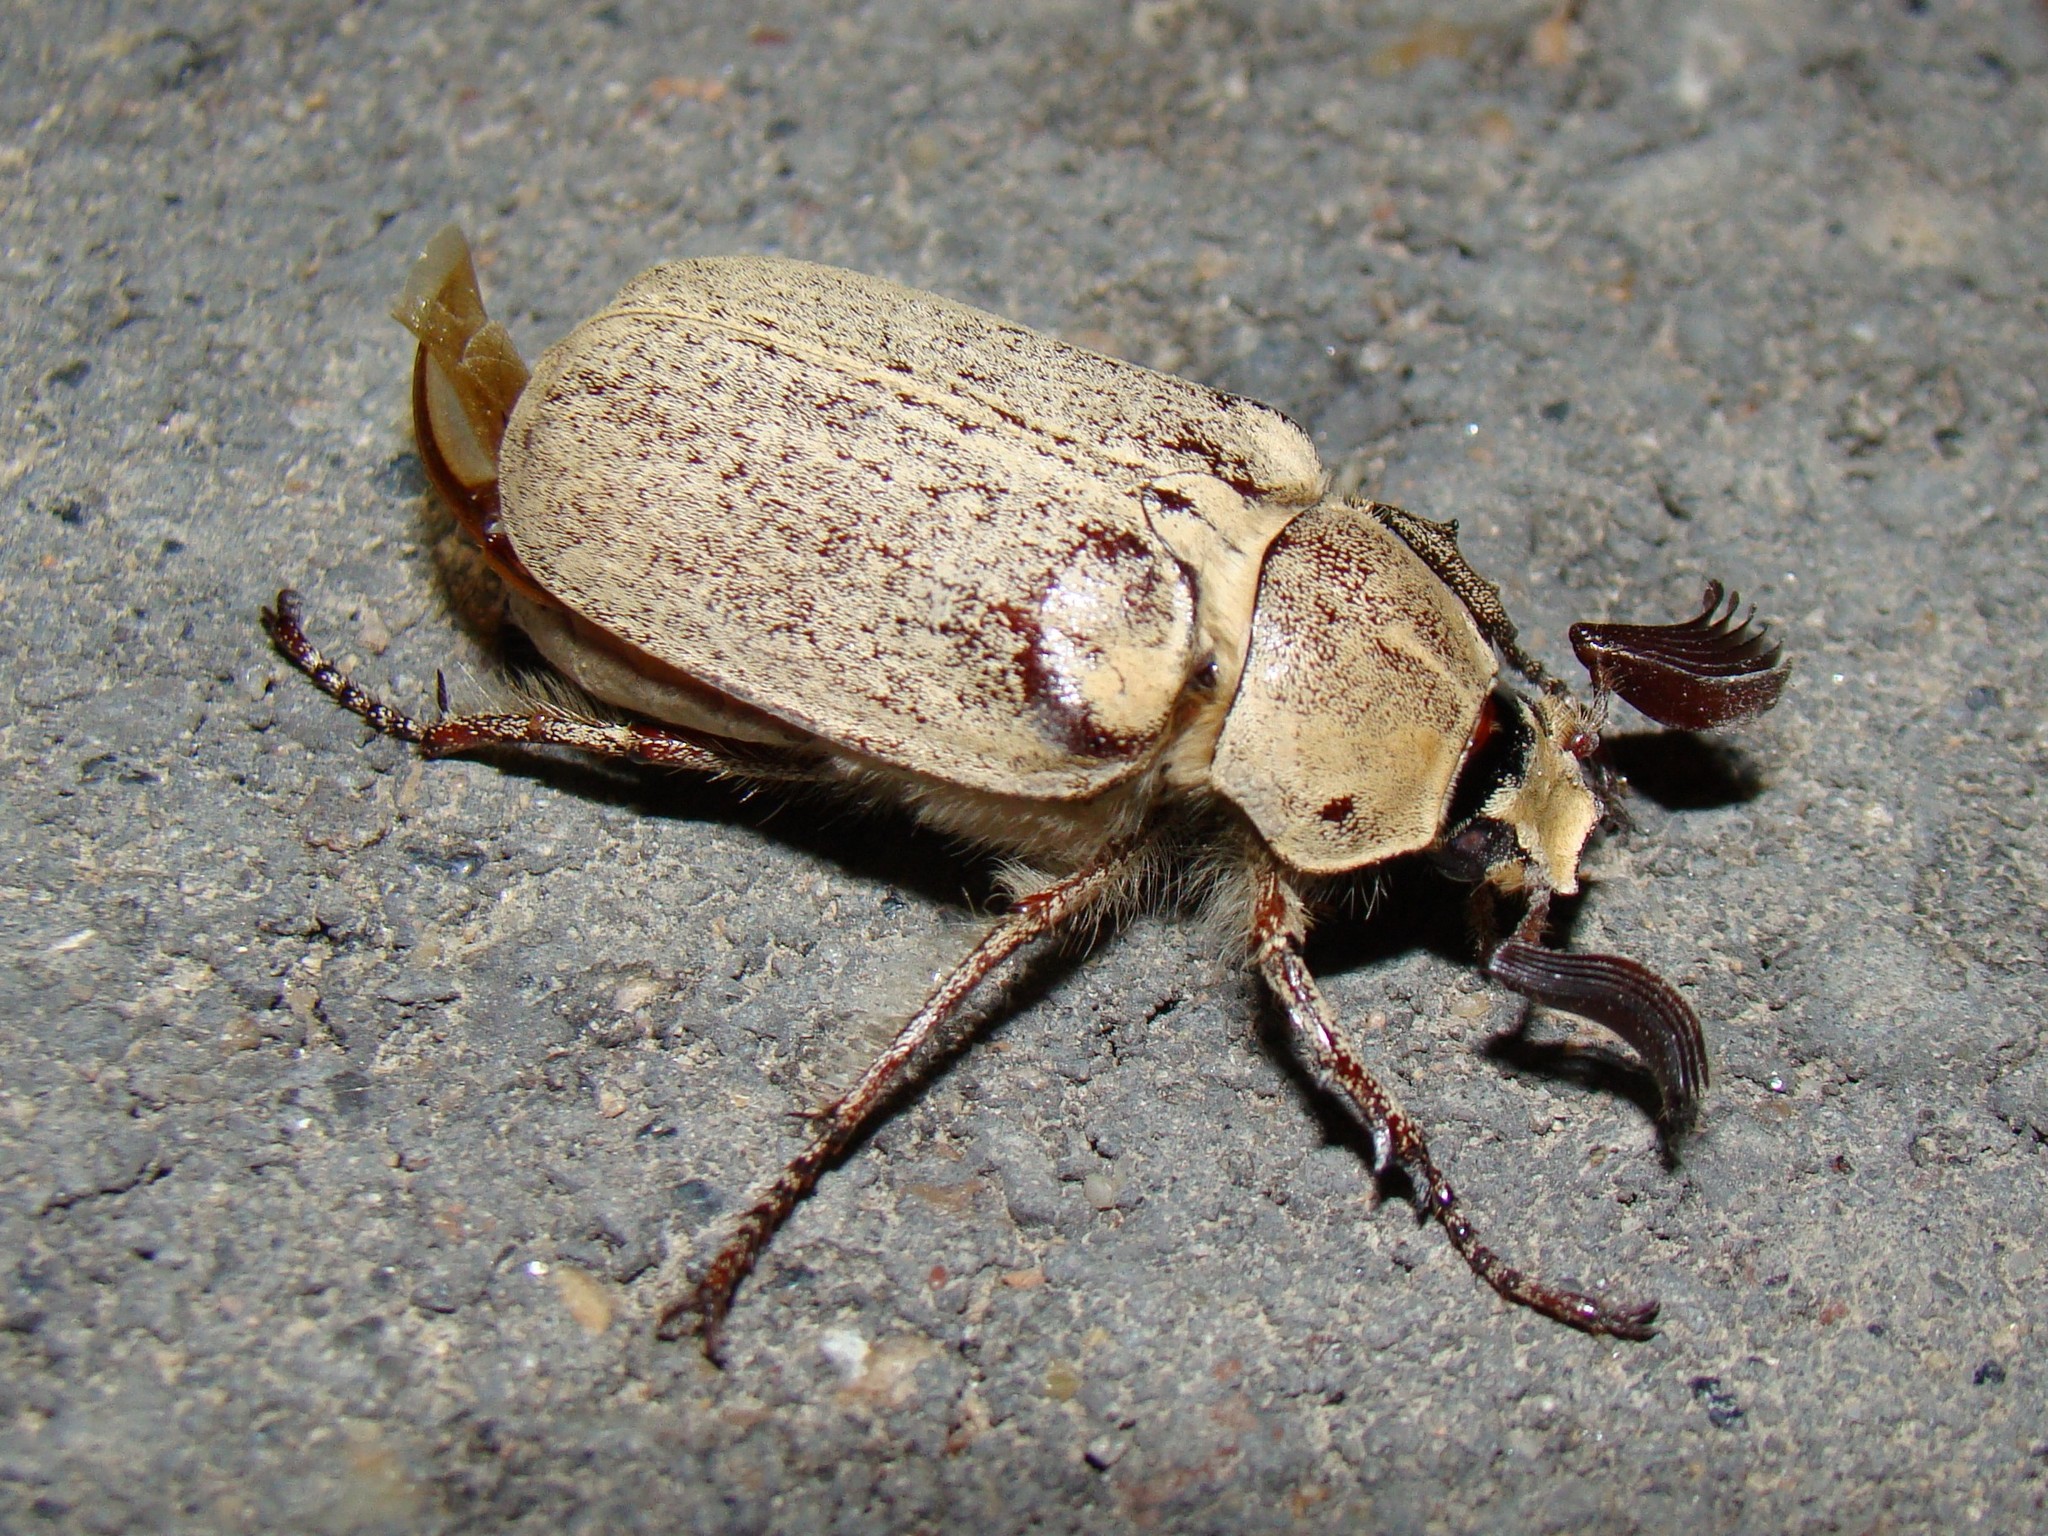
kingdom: Animalia
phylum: Arthropoda
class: Insecta
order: Coleoptera
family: Scarabaeidae
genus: Polyphylla
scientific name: Polyphylla adspersa
